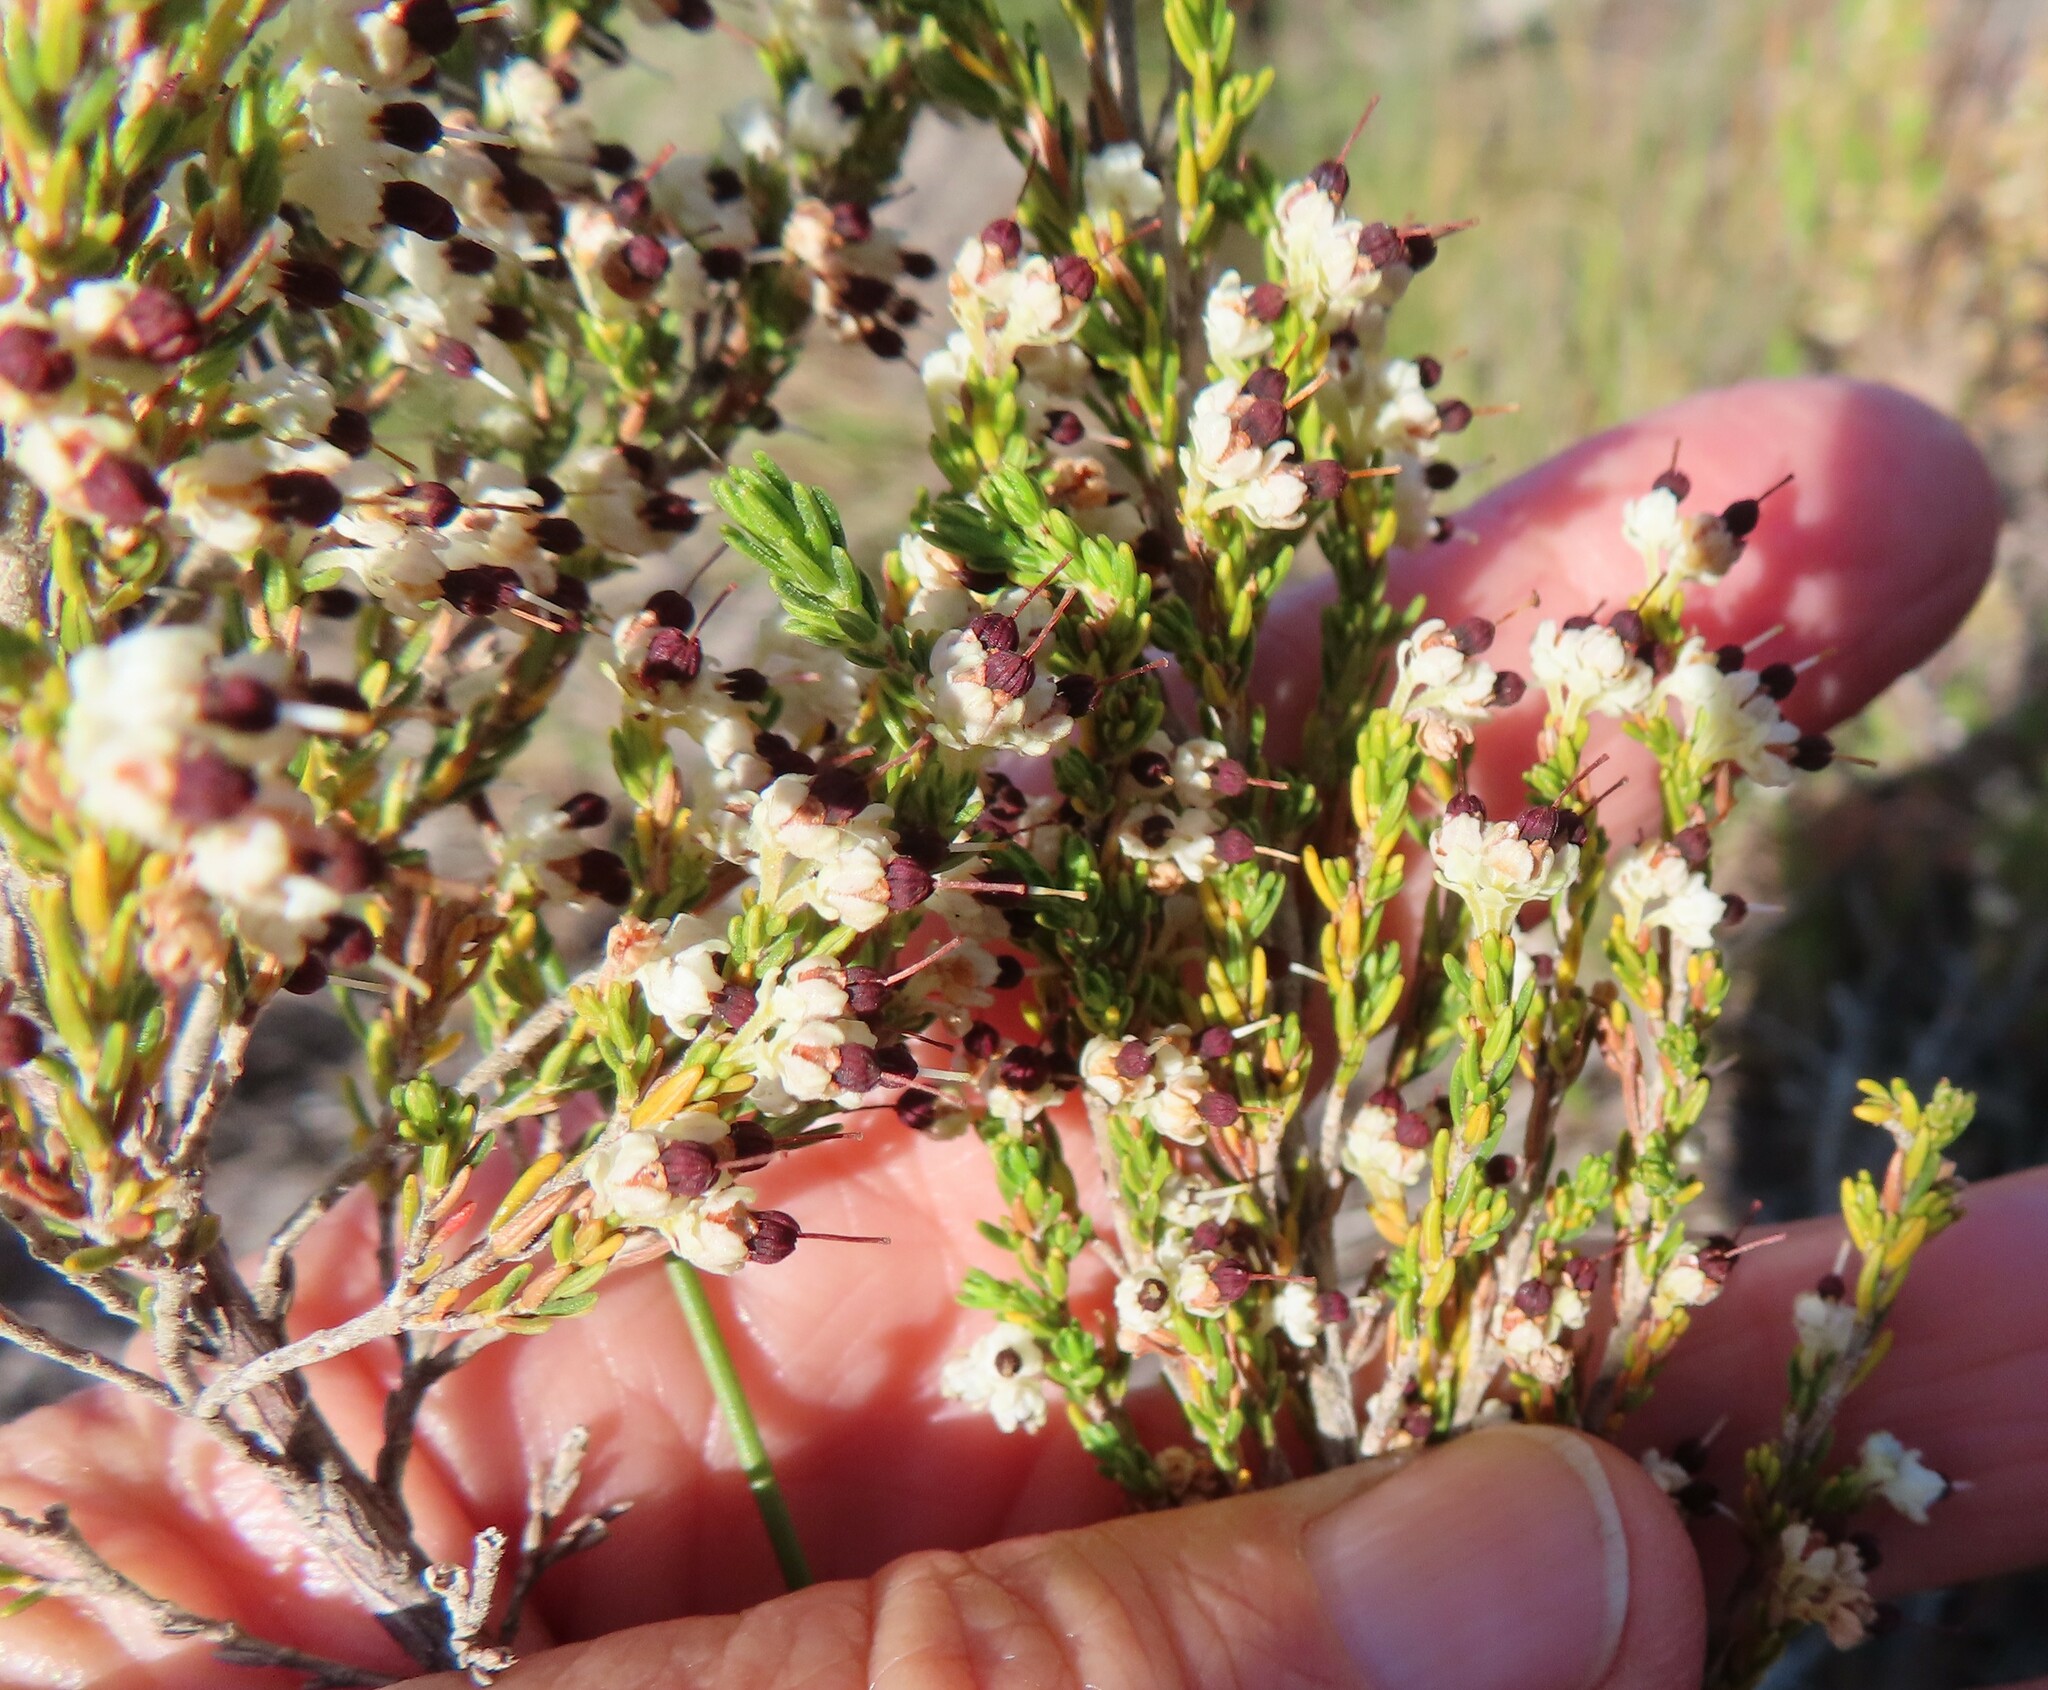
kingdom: Plantae
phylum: Tracheophyta
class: Magnoliopsida
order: Ericales
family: Ericaceae
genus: Erica
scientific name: Erica suffulta
